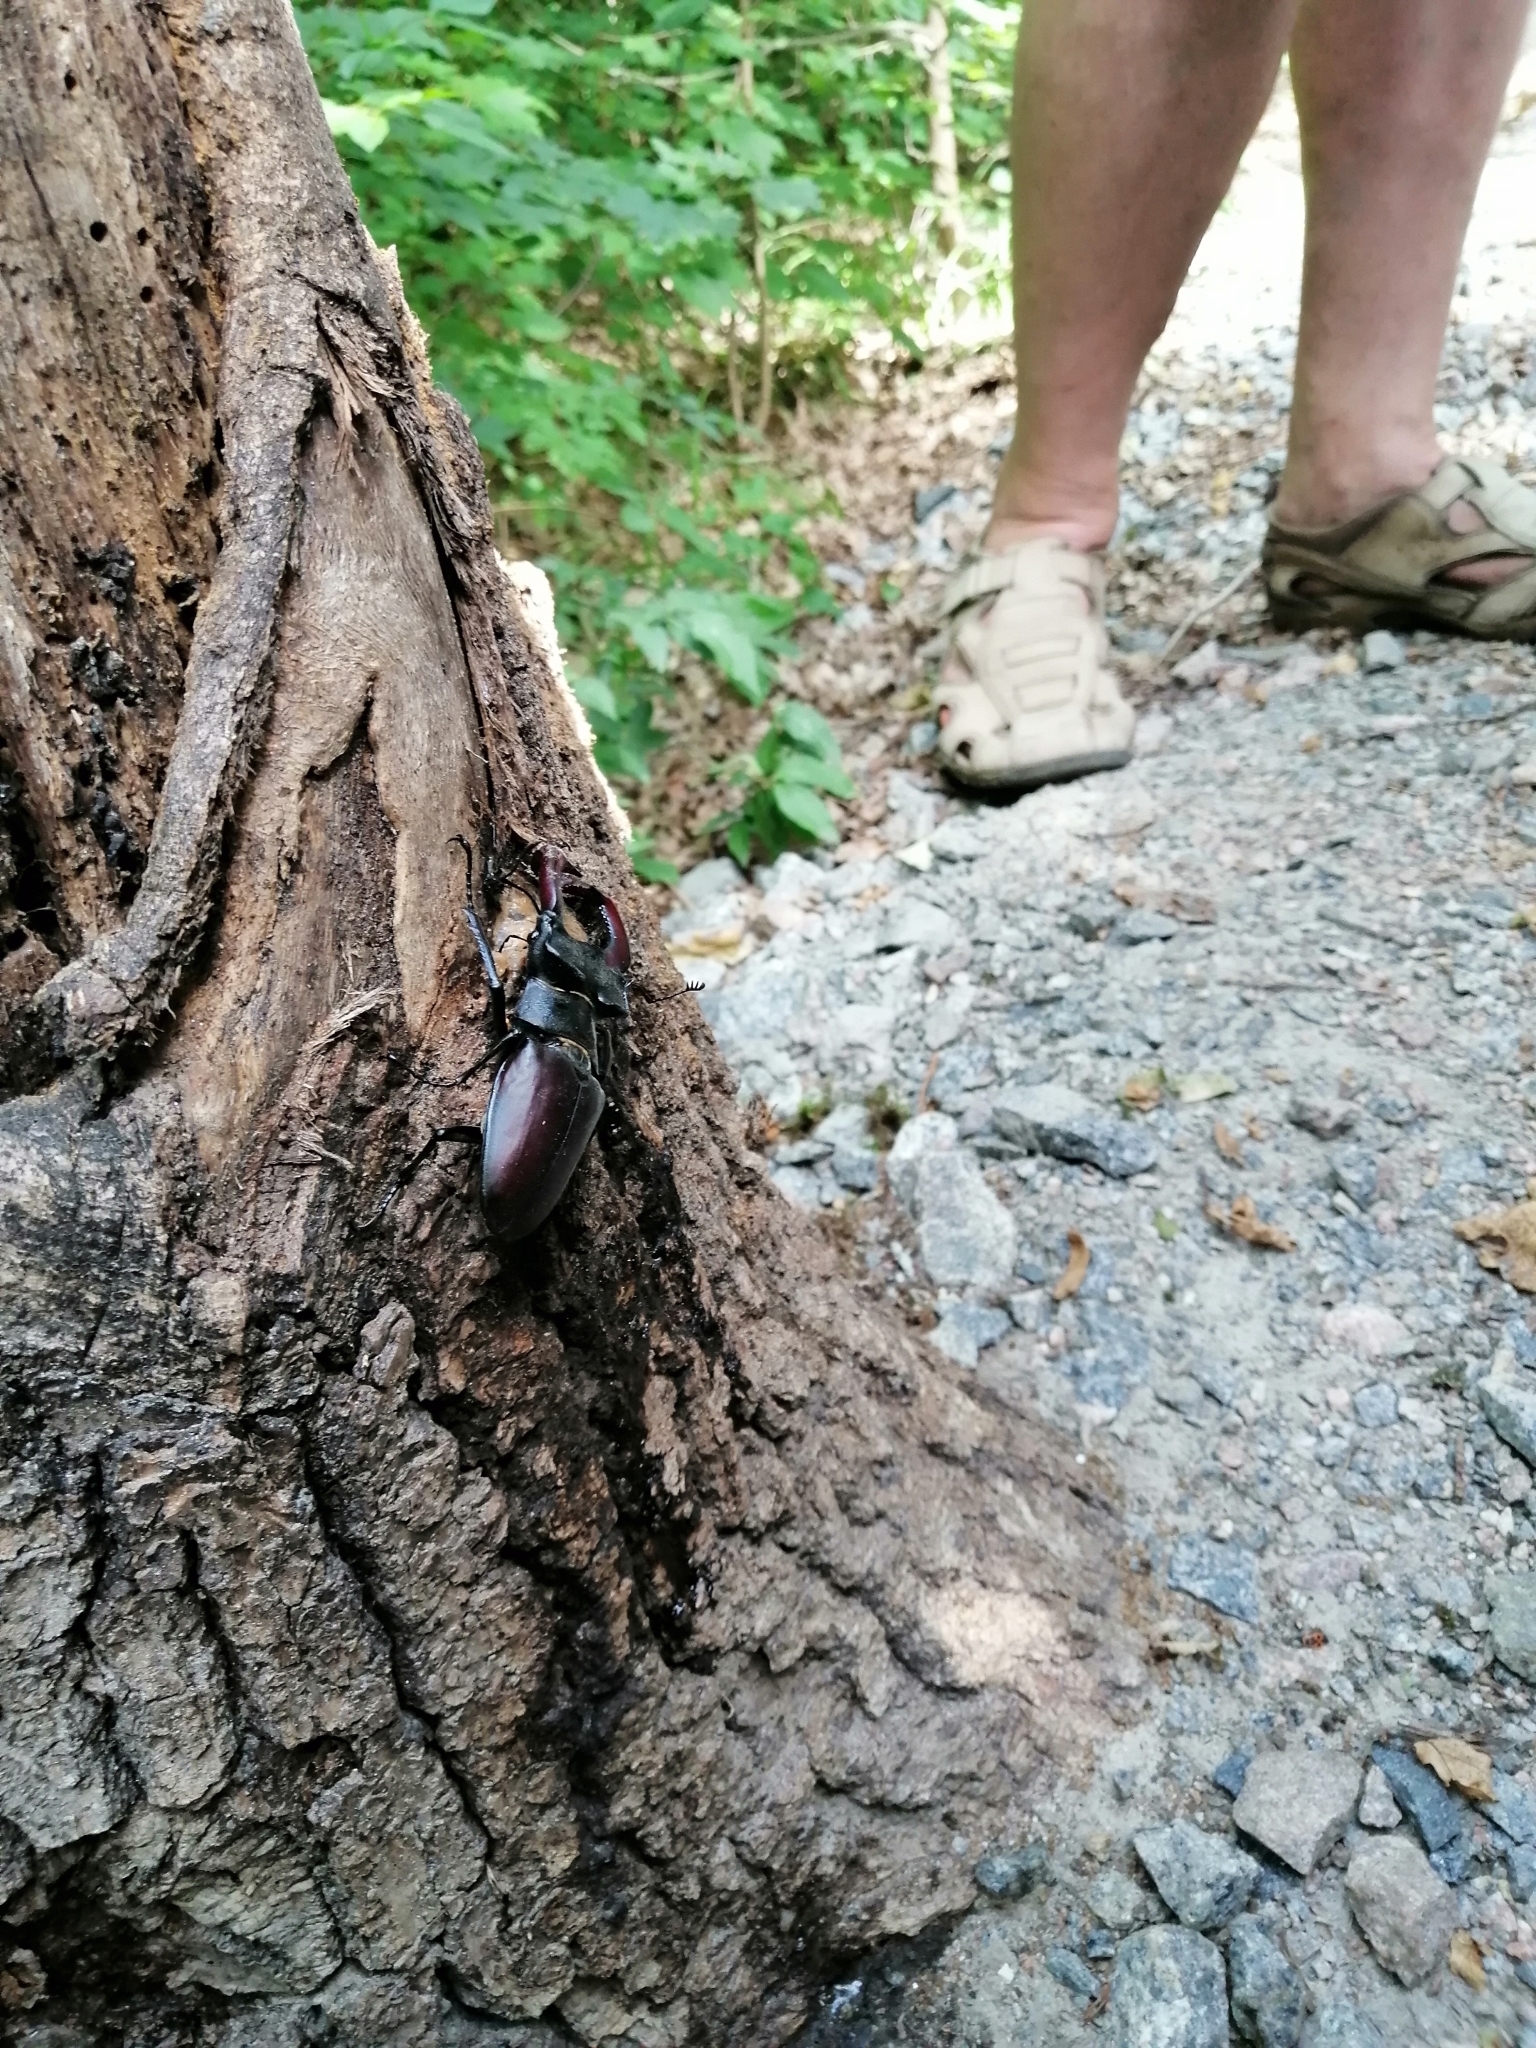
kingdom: Animalia
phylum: Arthropoda
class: Insecta
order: Coleoptera
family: Lucanidae
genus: Lucanus
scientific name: Lucanus cervus
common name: Stag beetle
